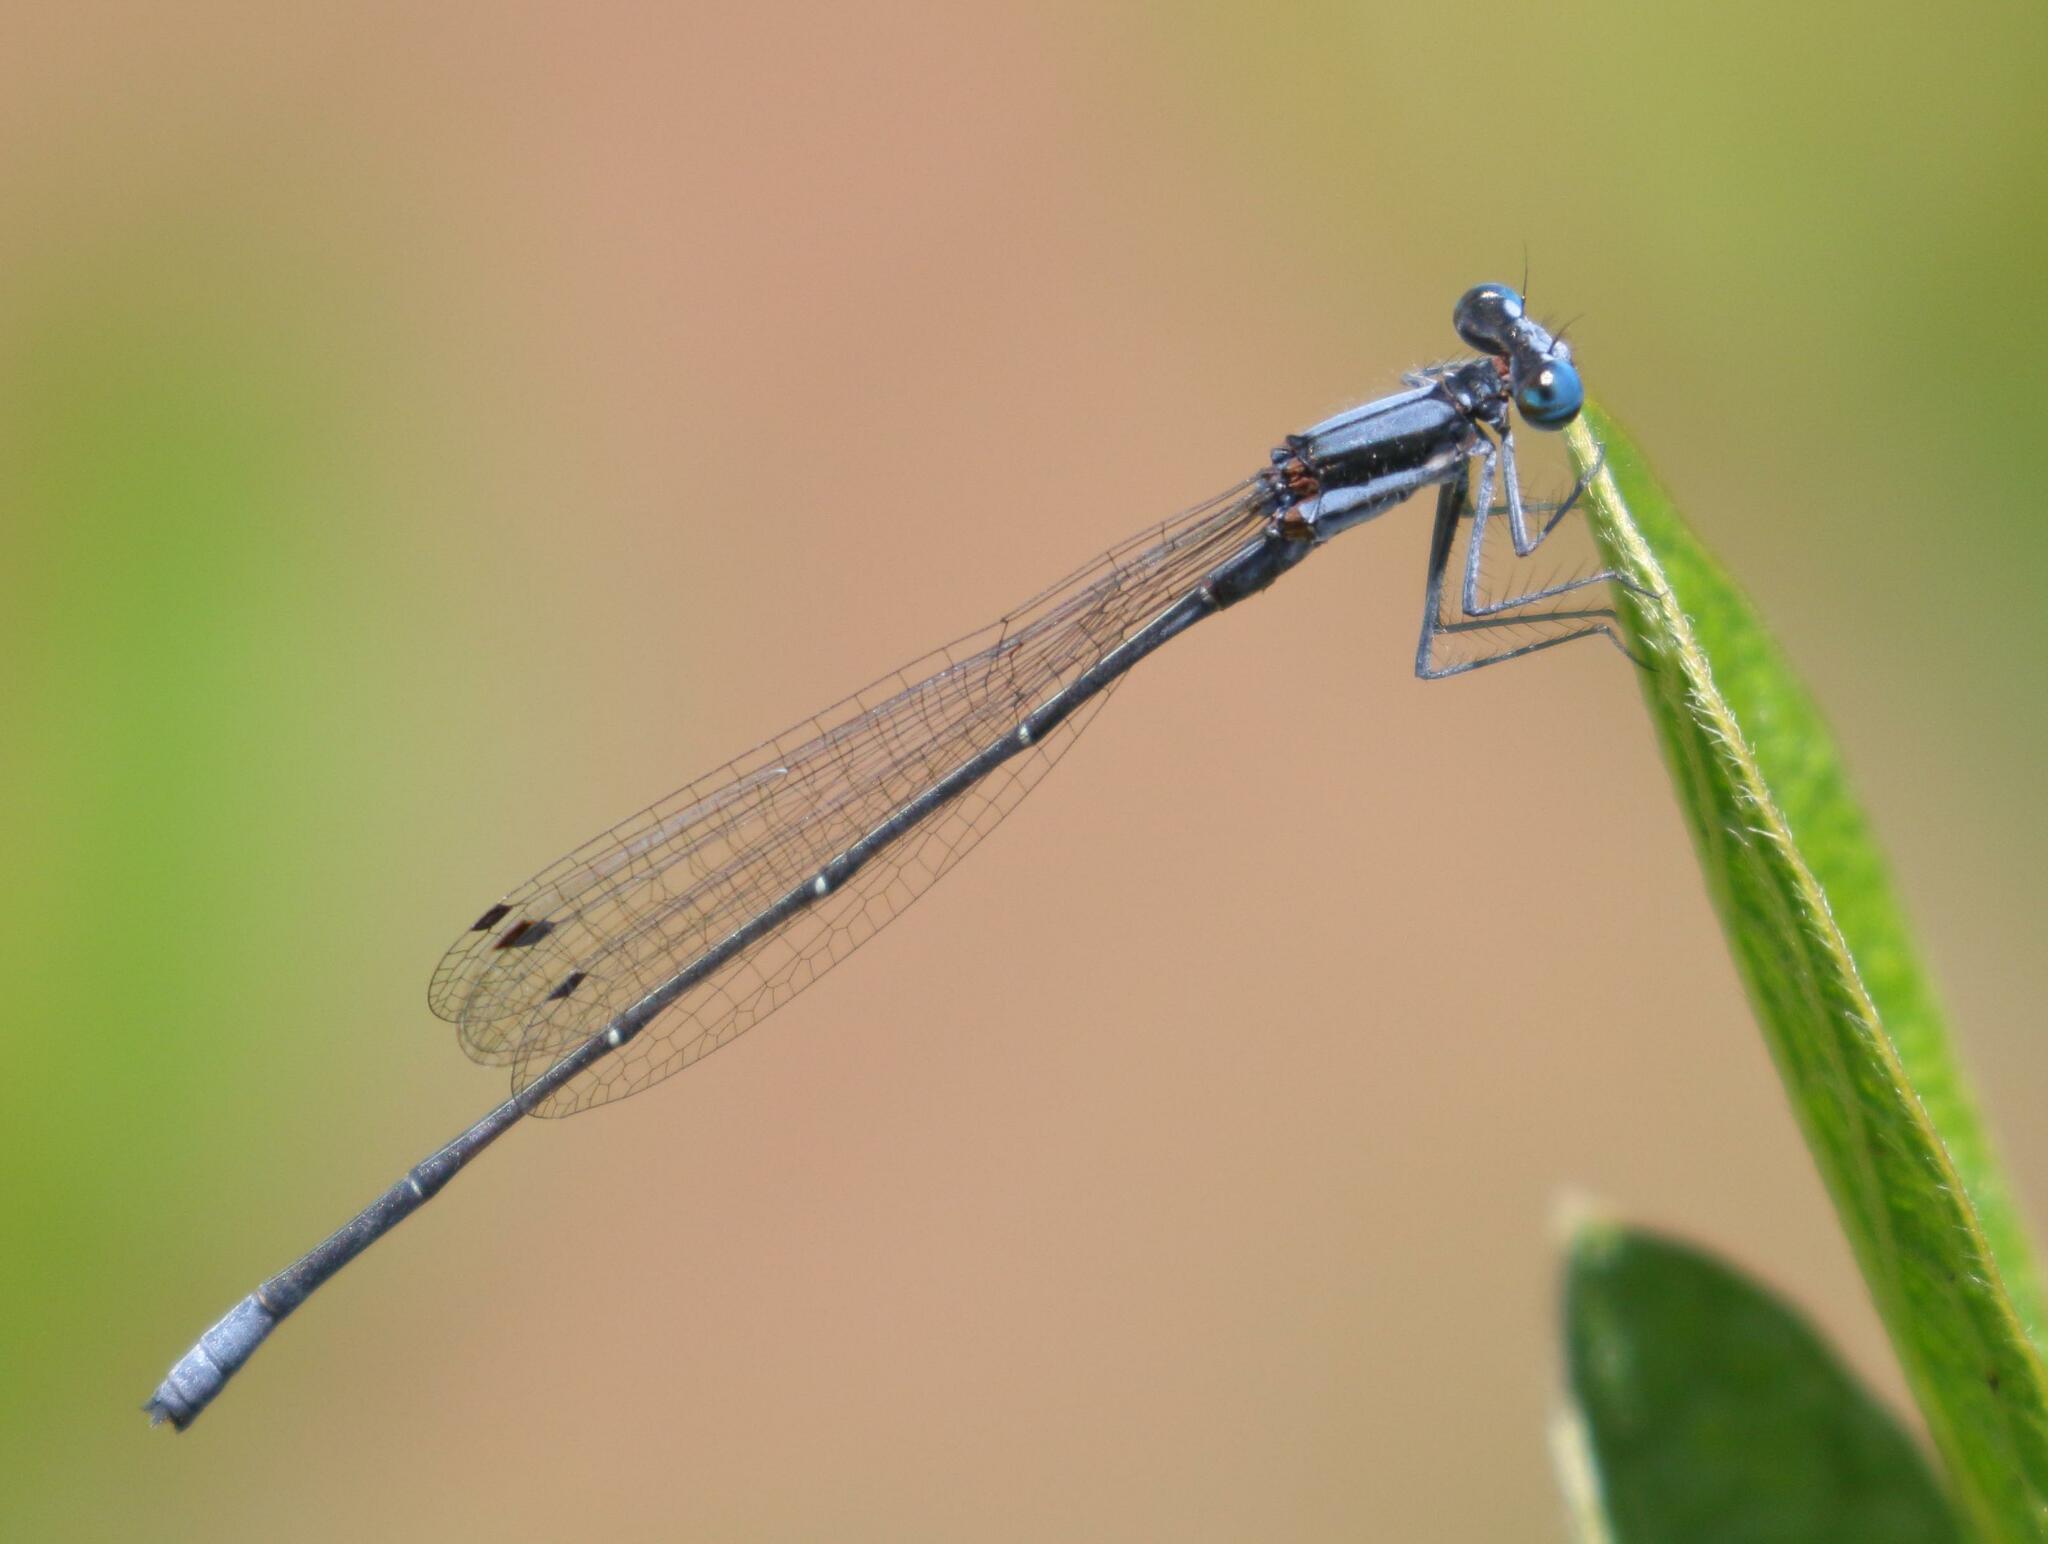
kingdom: Animalia
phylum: Arthropoda
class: Insecta
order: Odonata
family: Platycnemididae
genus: Elattoneura
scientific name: Elattoneura glauca
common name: Common threadtail
